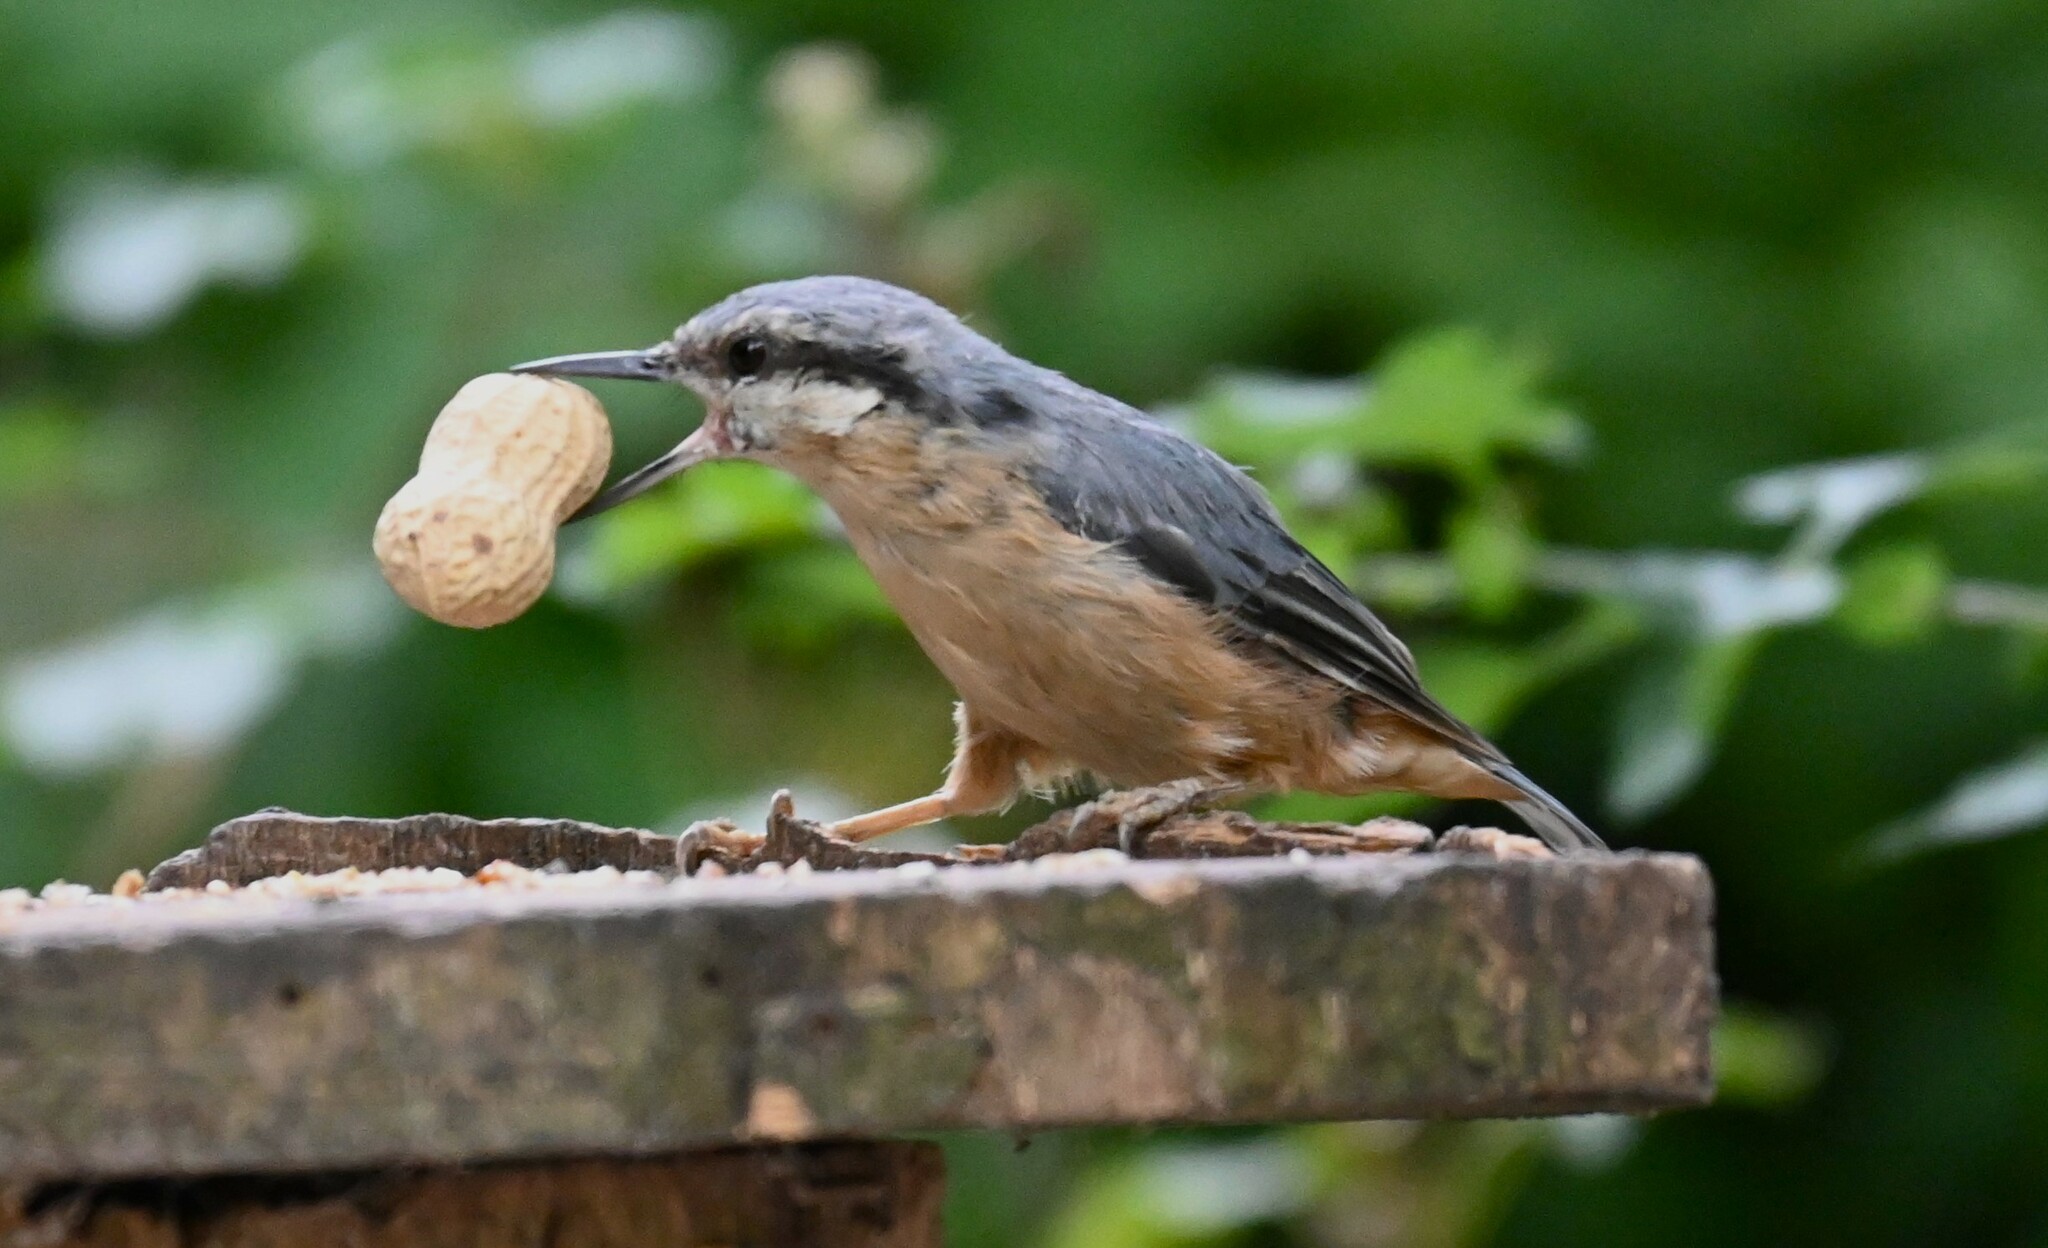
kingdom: Animalia
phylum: Chordata
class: Aves
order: Passeriformes
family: Sittidae
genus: Sitta
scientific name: Sitta europaea
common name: Eurasian nuthatch
